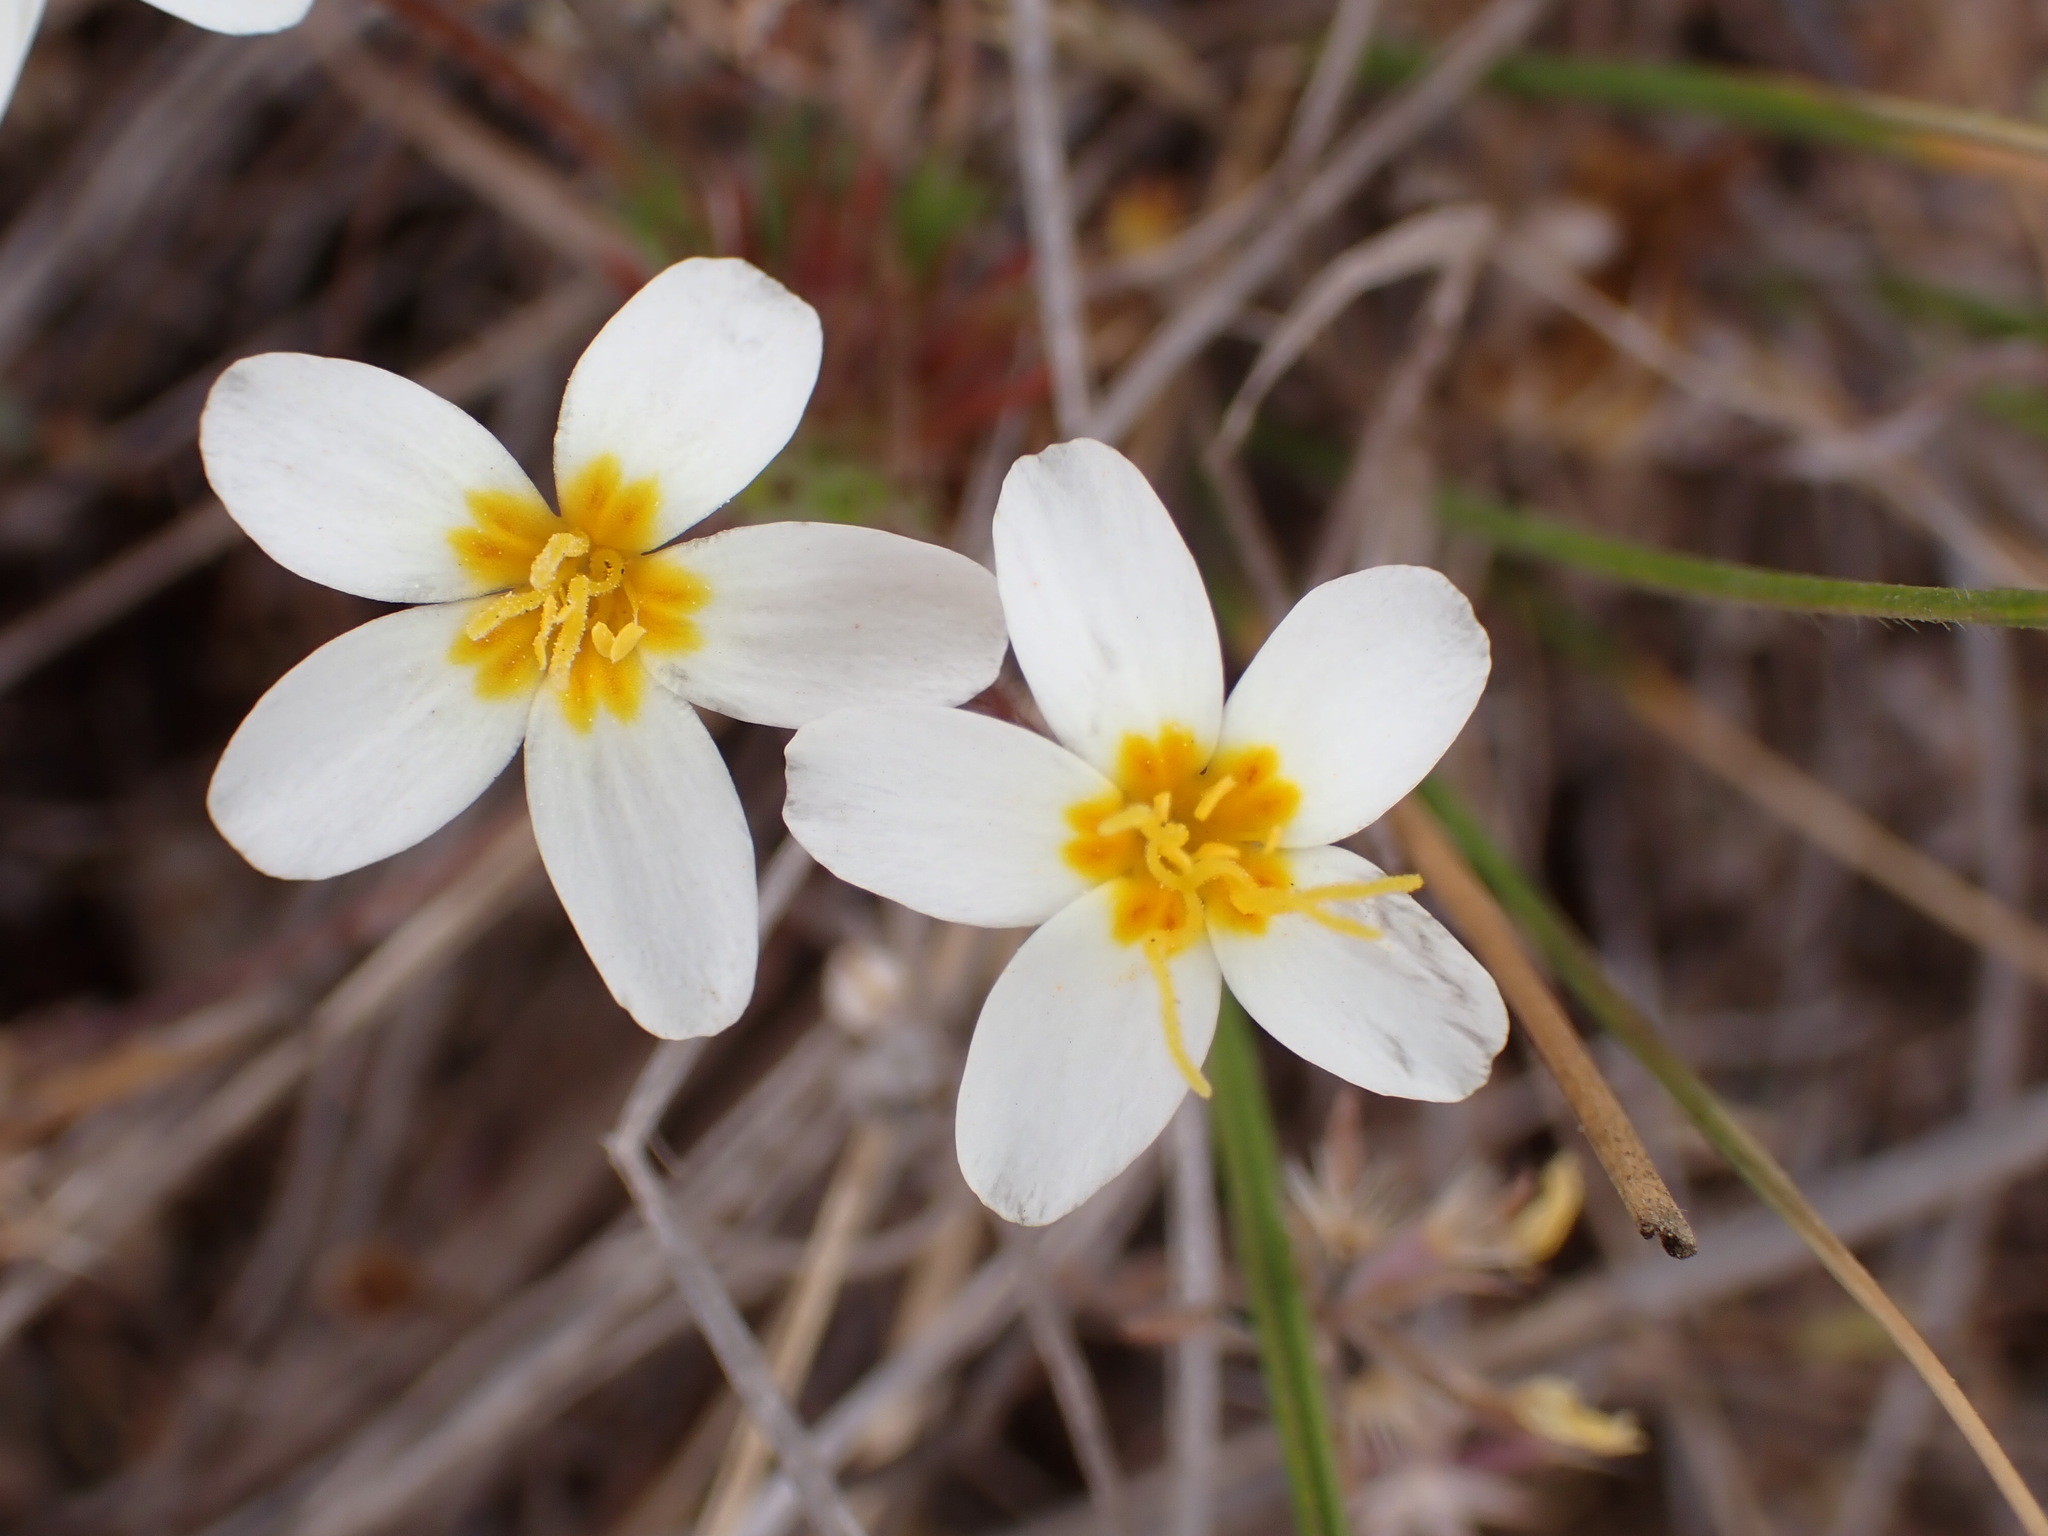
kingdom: Plantae
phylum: Tracheophyta
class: Magnoliopsida
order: Ericales
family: Polemoniaceae
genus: Leptosiphon
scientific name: Leptosiphon parviflorus
